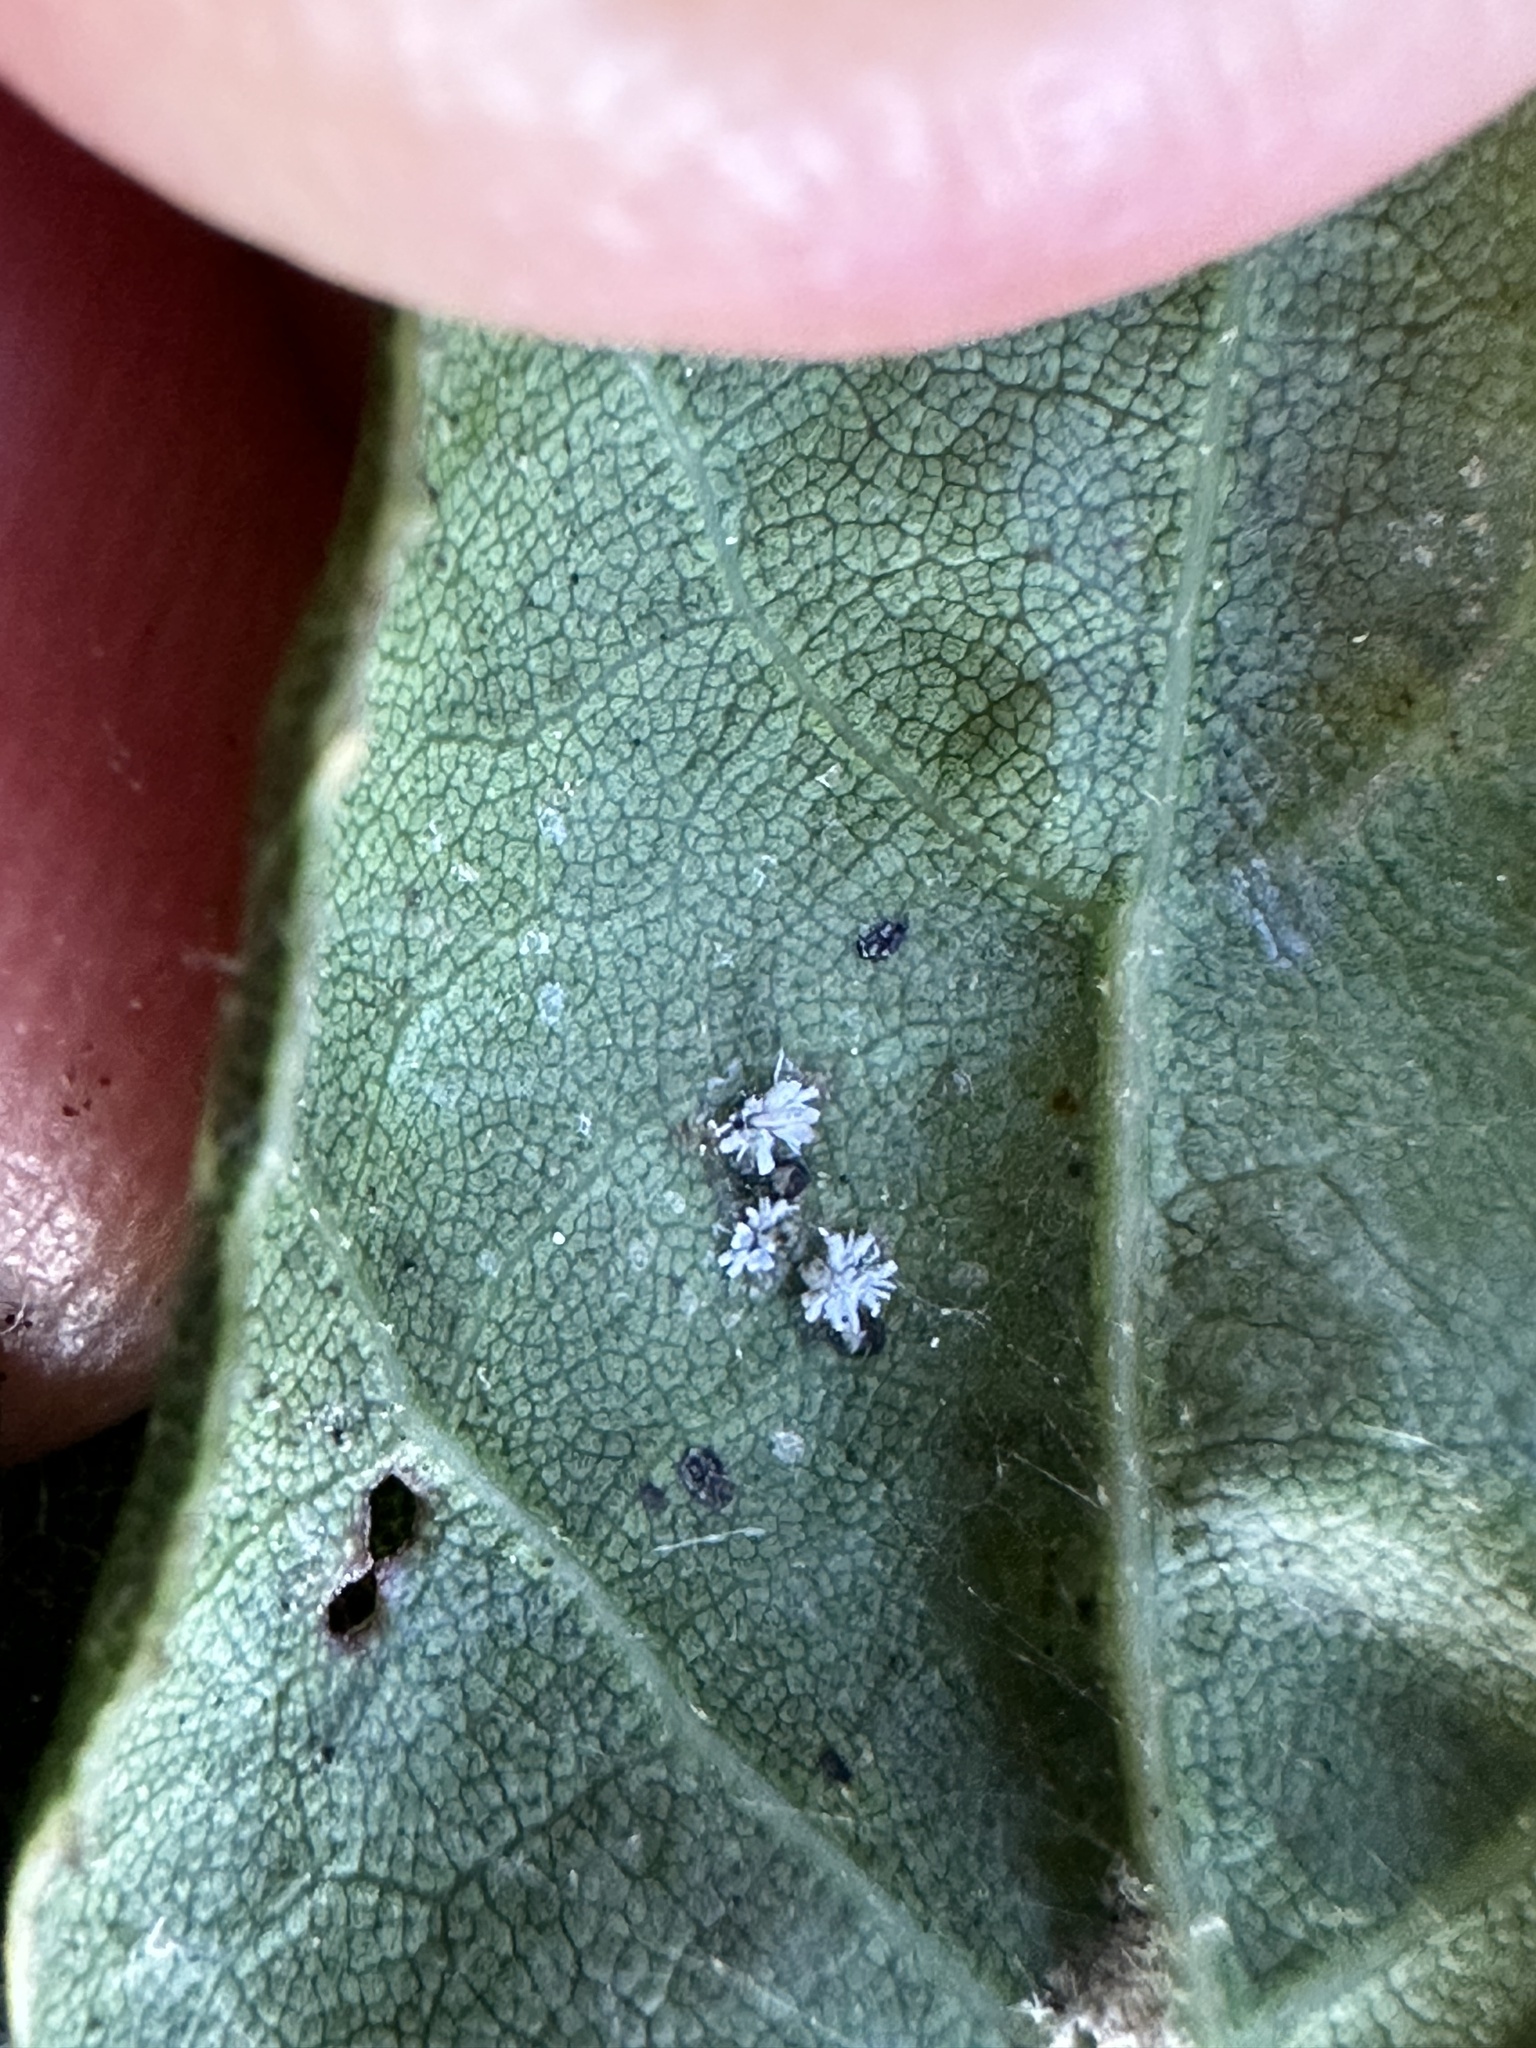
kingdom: Animalia
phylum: Arthropoda
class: Insecta
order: Hemiptera
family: Aleyrodidae
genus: Aleuroplatus
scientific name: Aleuroplatus coronata
